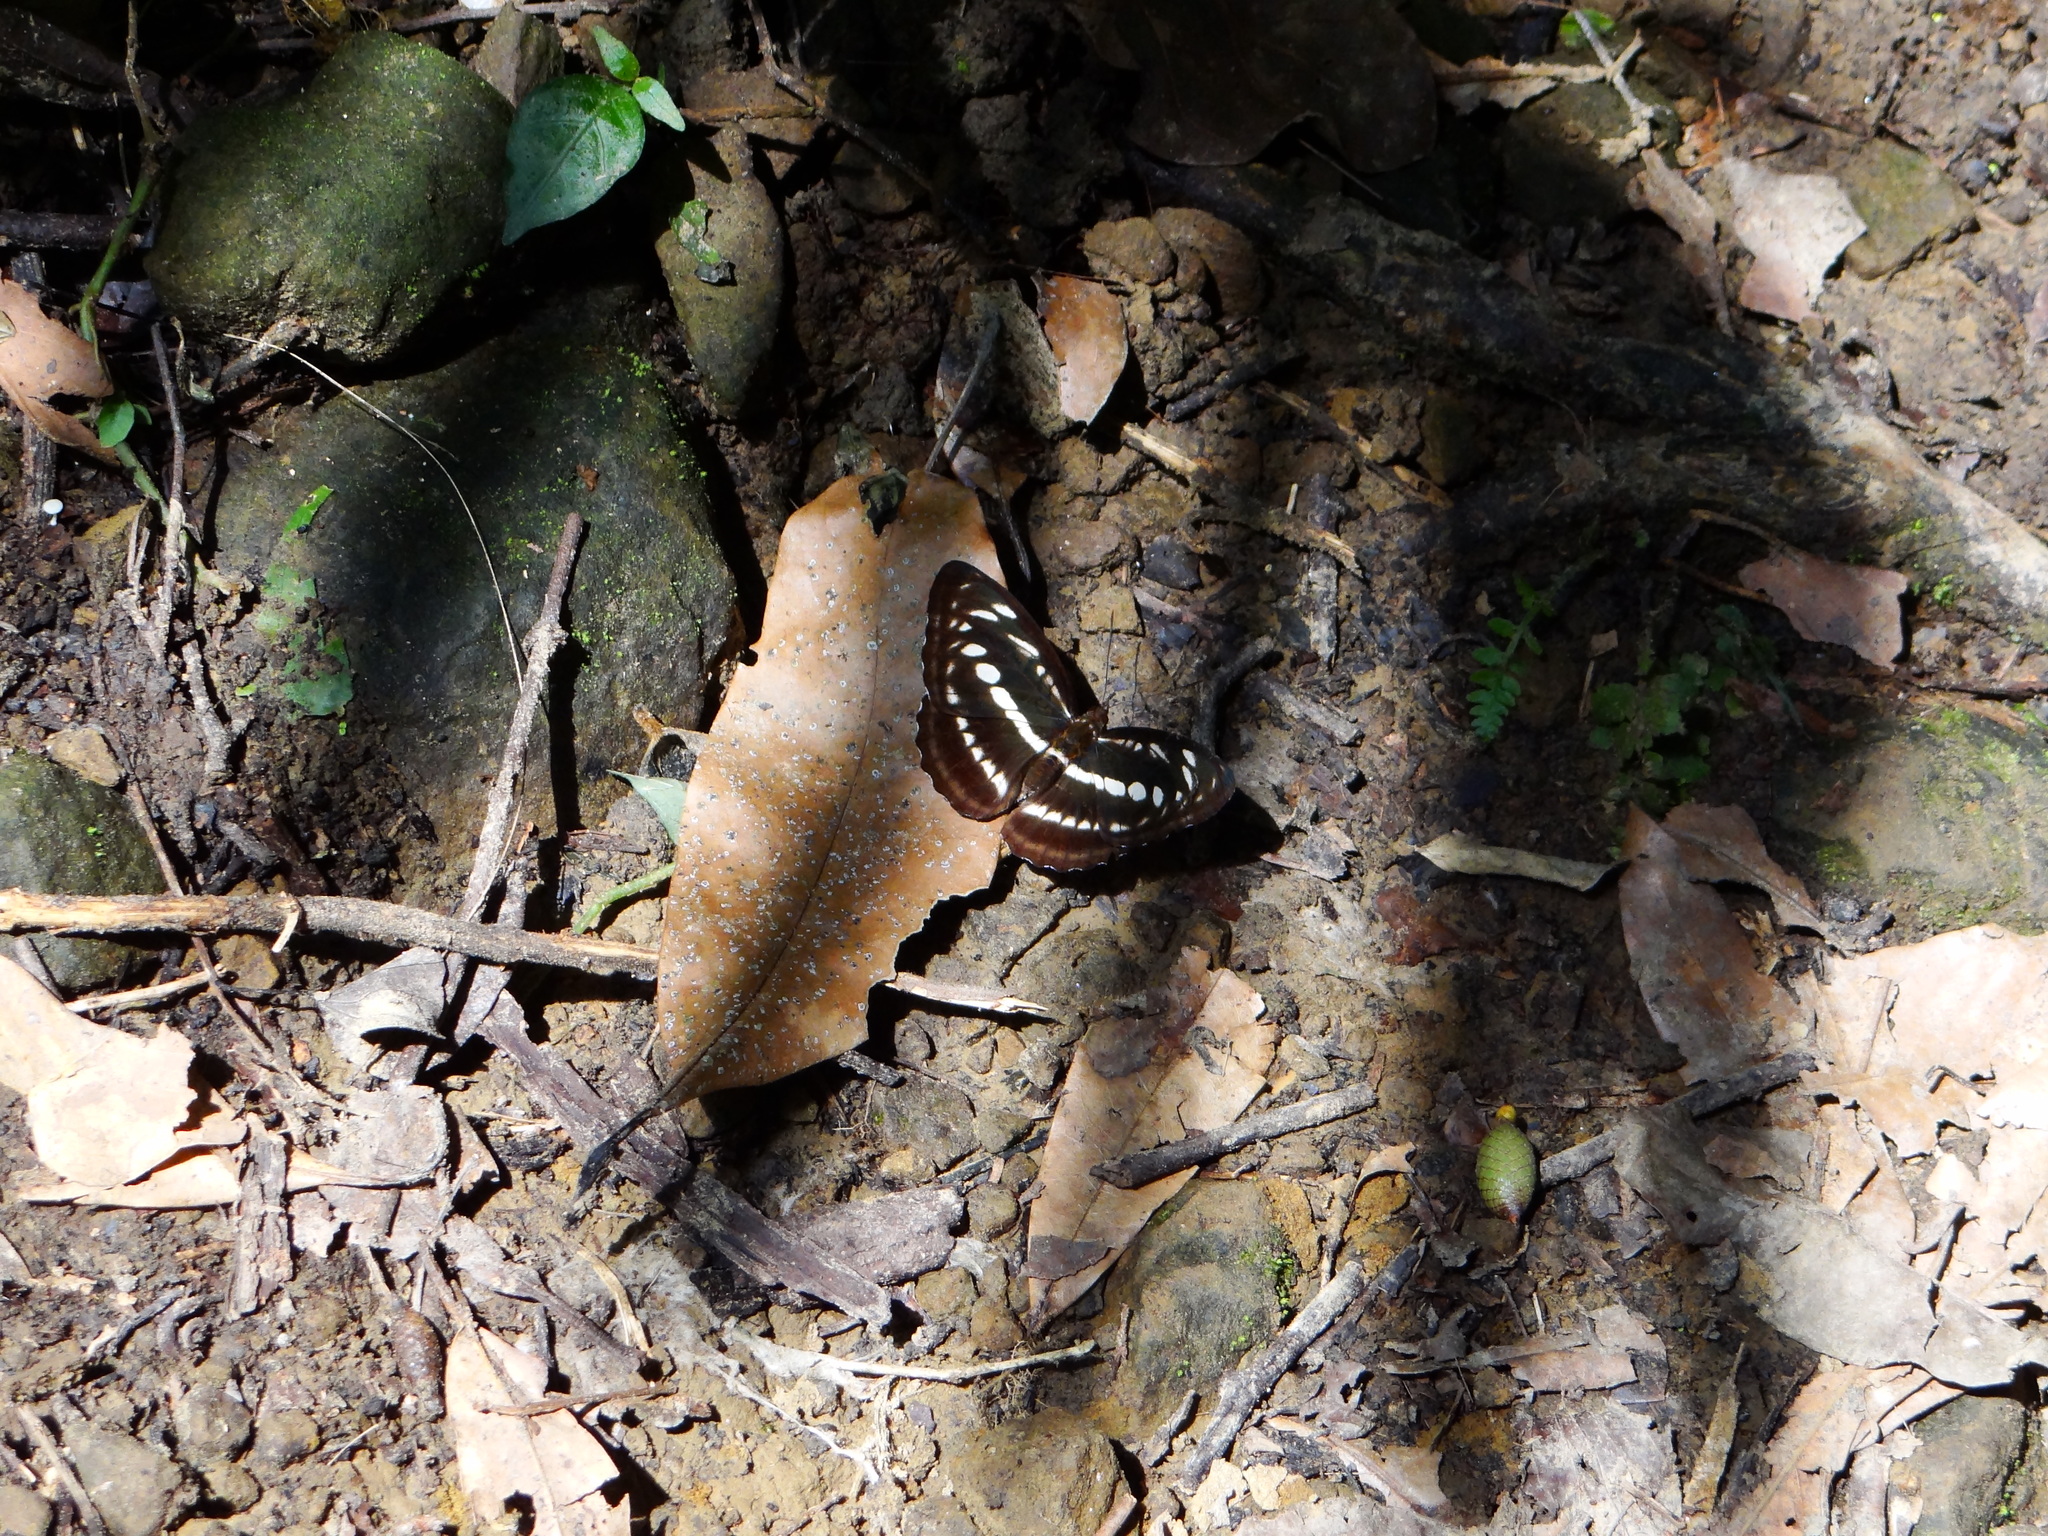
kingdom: Animalia
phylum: Arthropoda
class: Insecta
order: Lepidoptera
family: Nymphalidae
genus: Parathyma
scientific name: Parathyma selenophora
